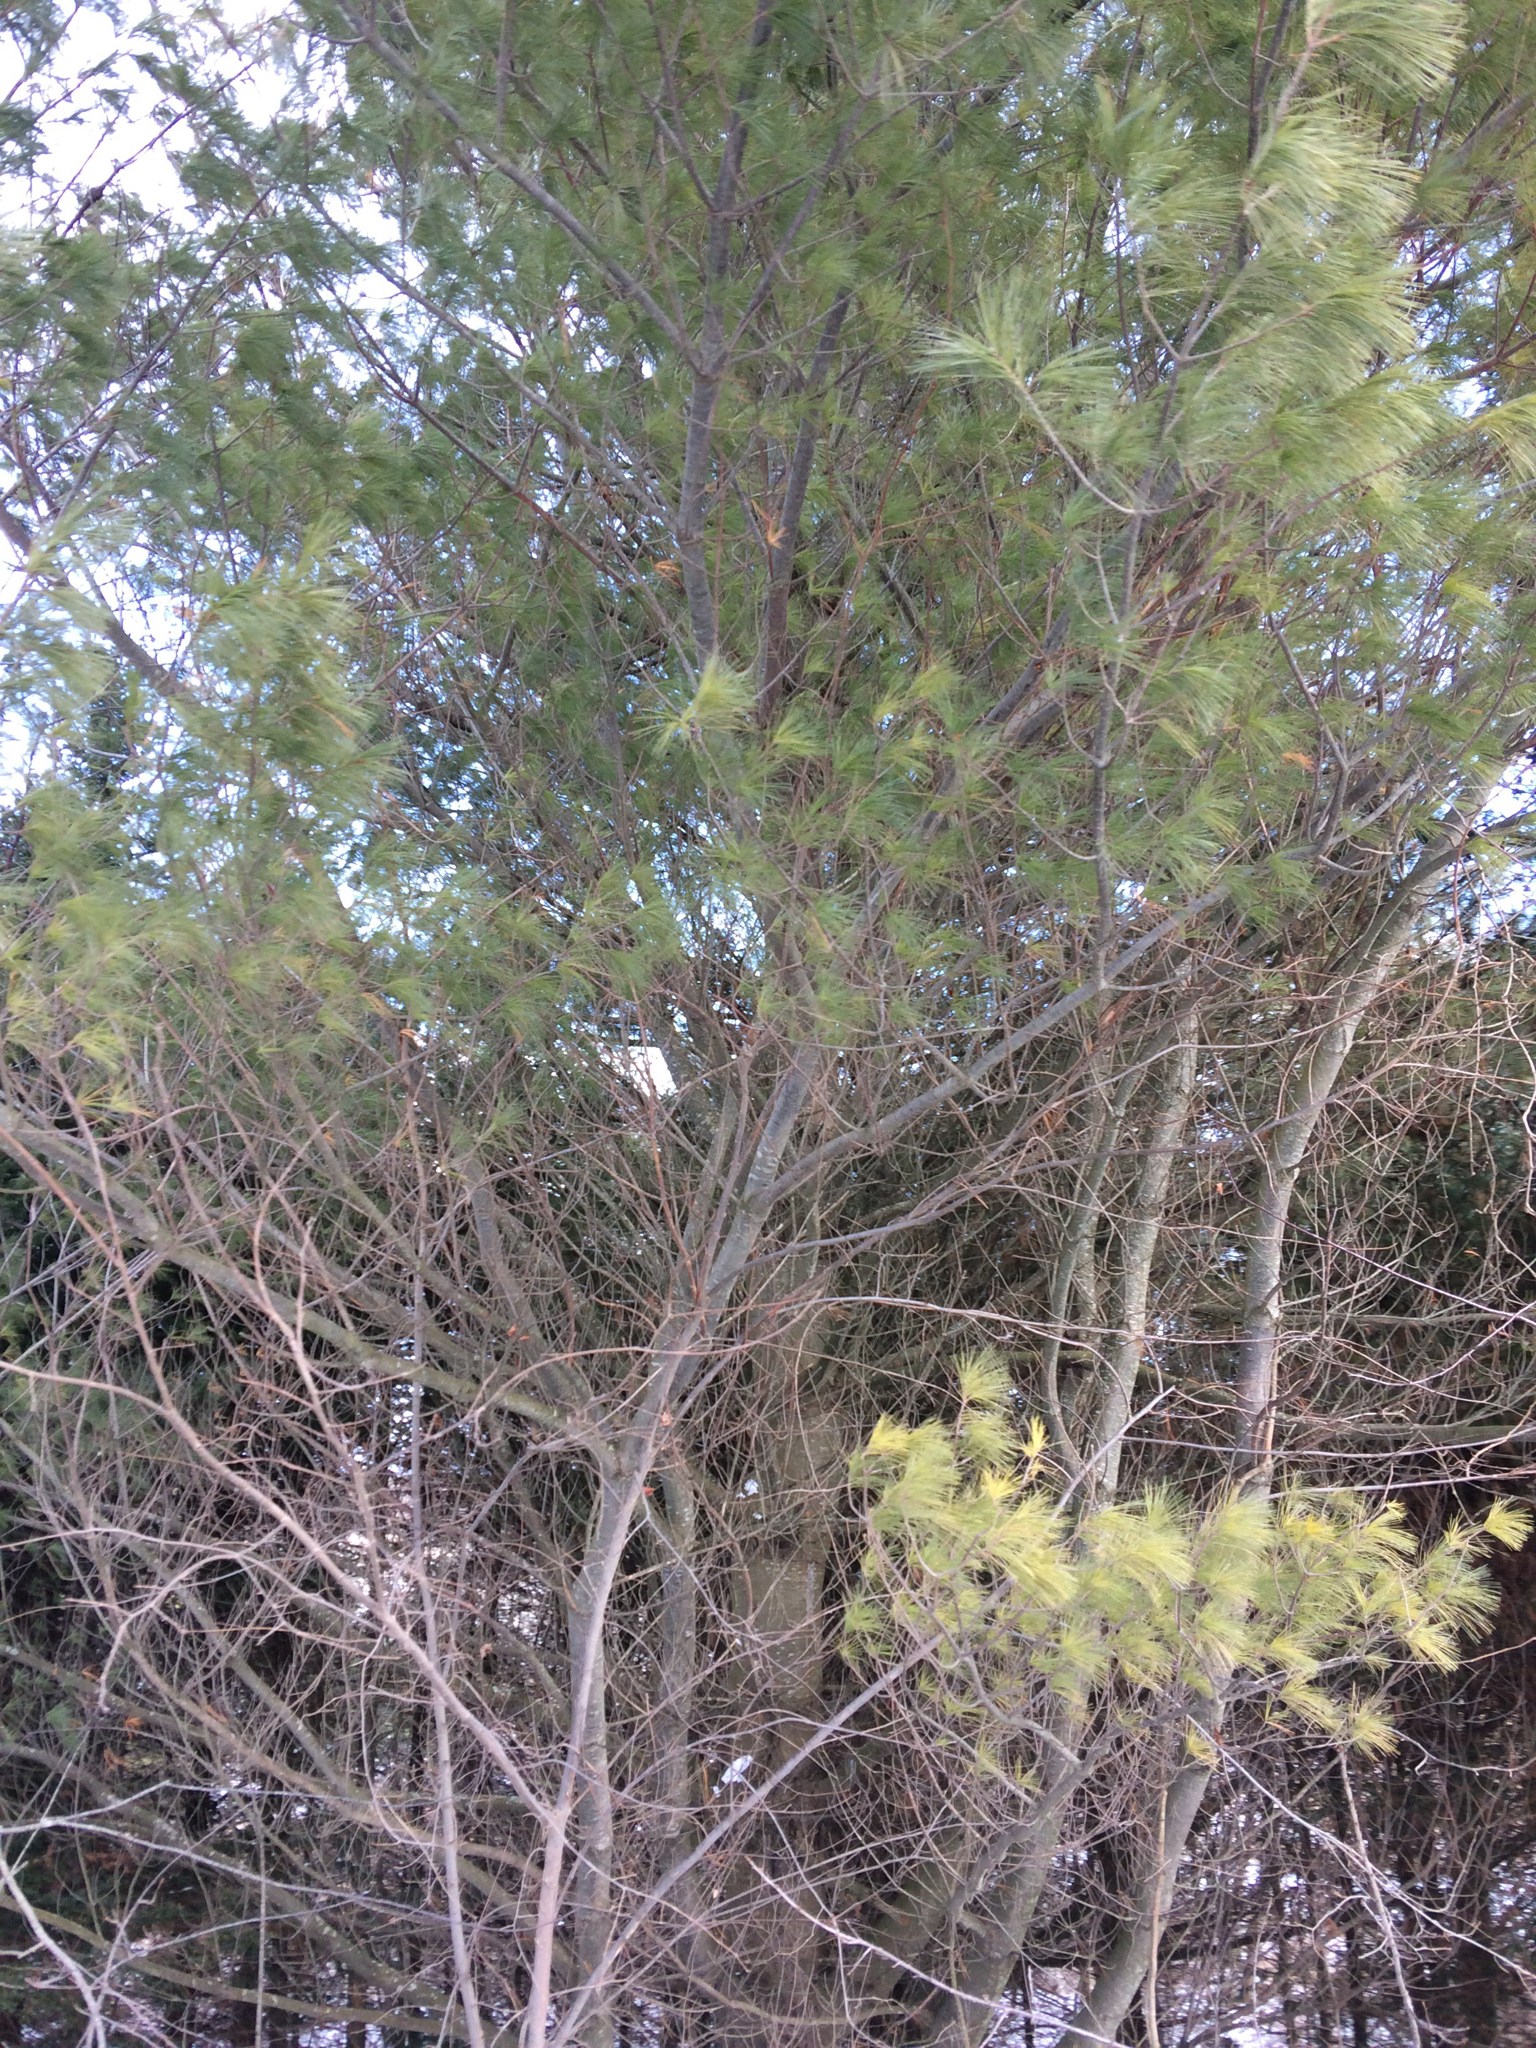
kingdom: Plantae
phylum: Tracheophyta
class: Pinopsida
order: Pinales
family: Pinaceae
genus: Pinus
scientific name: Pinus strobus
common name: Weymouth pine
